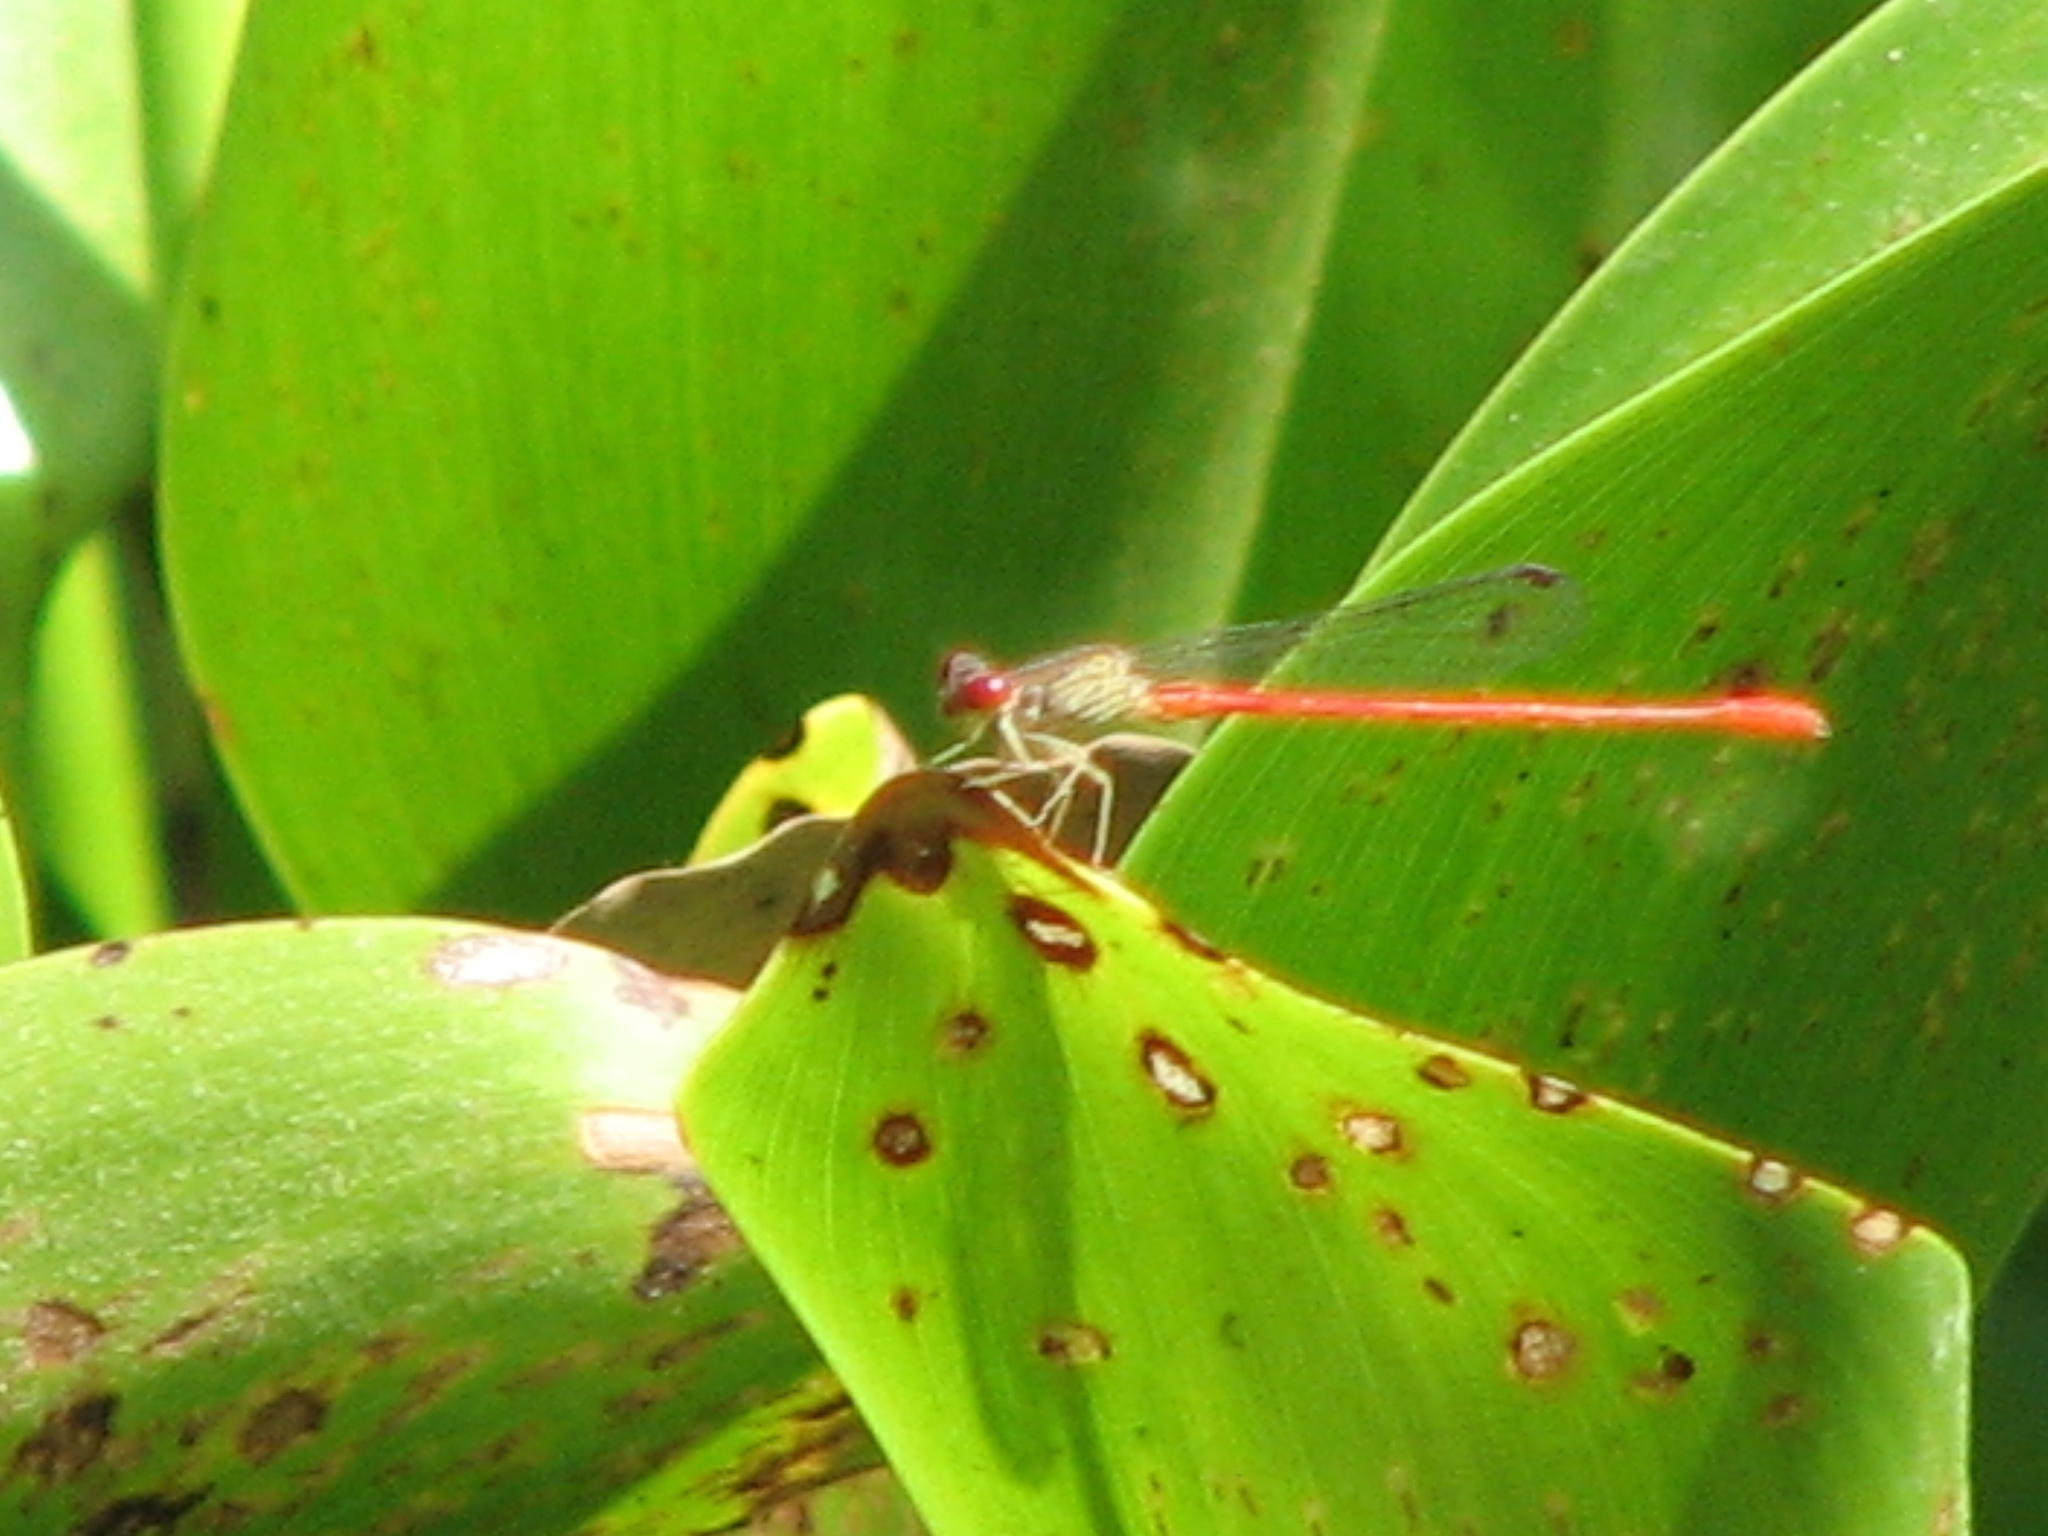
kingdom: Animalia
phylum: Arthropoda
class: Insecta
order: Odonata
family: Coenagrionidae
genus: Telebasis
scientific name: Telebasis digiticollis
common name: Marsh firetail
